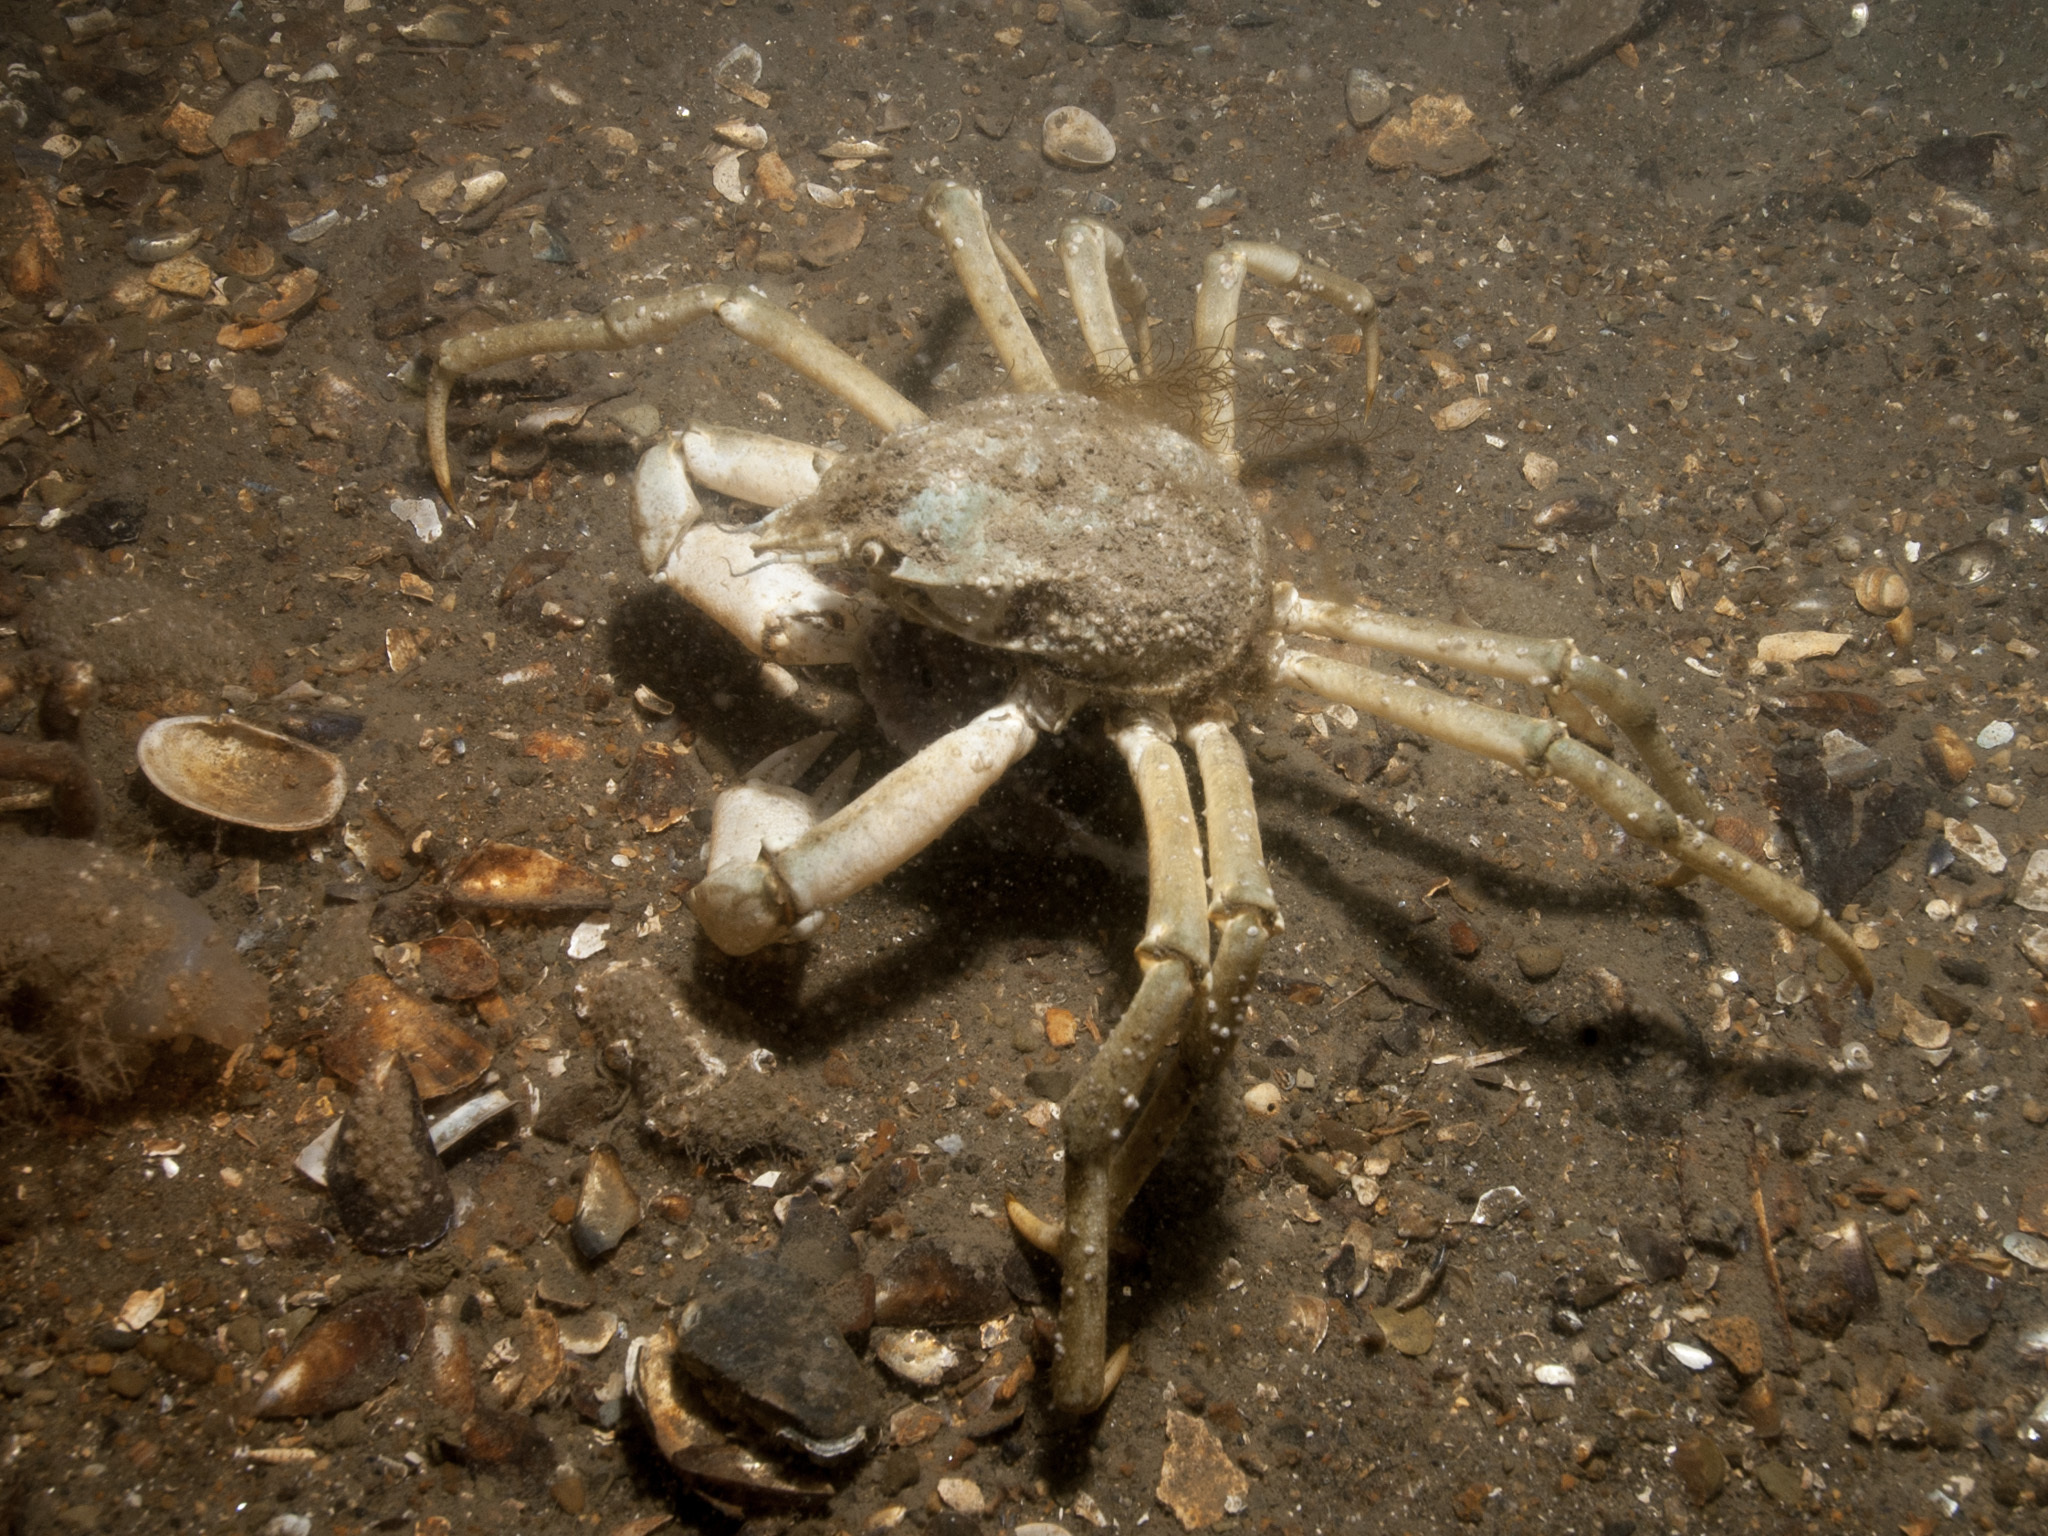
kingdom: Animalia
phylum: Arthropoda
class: Malacostraca
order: Decapoda
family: Oregoniidae
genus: Hyas
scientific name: Hyas araneus
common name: Great spider crab
